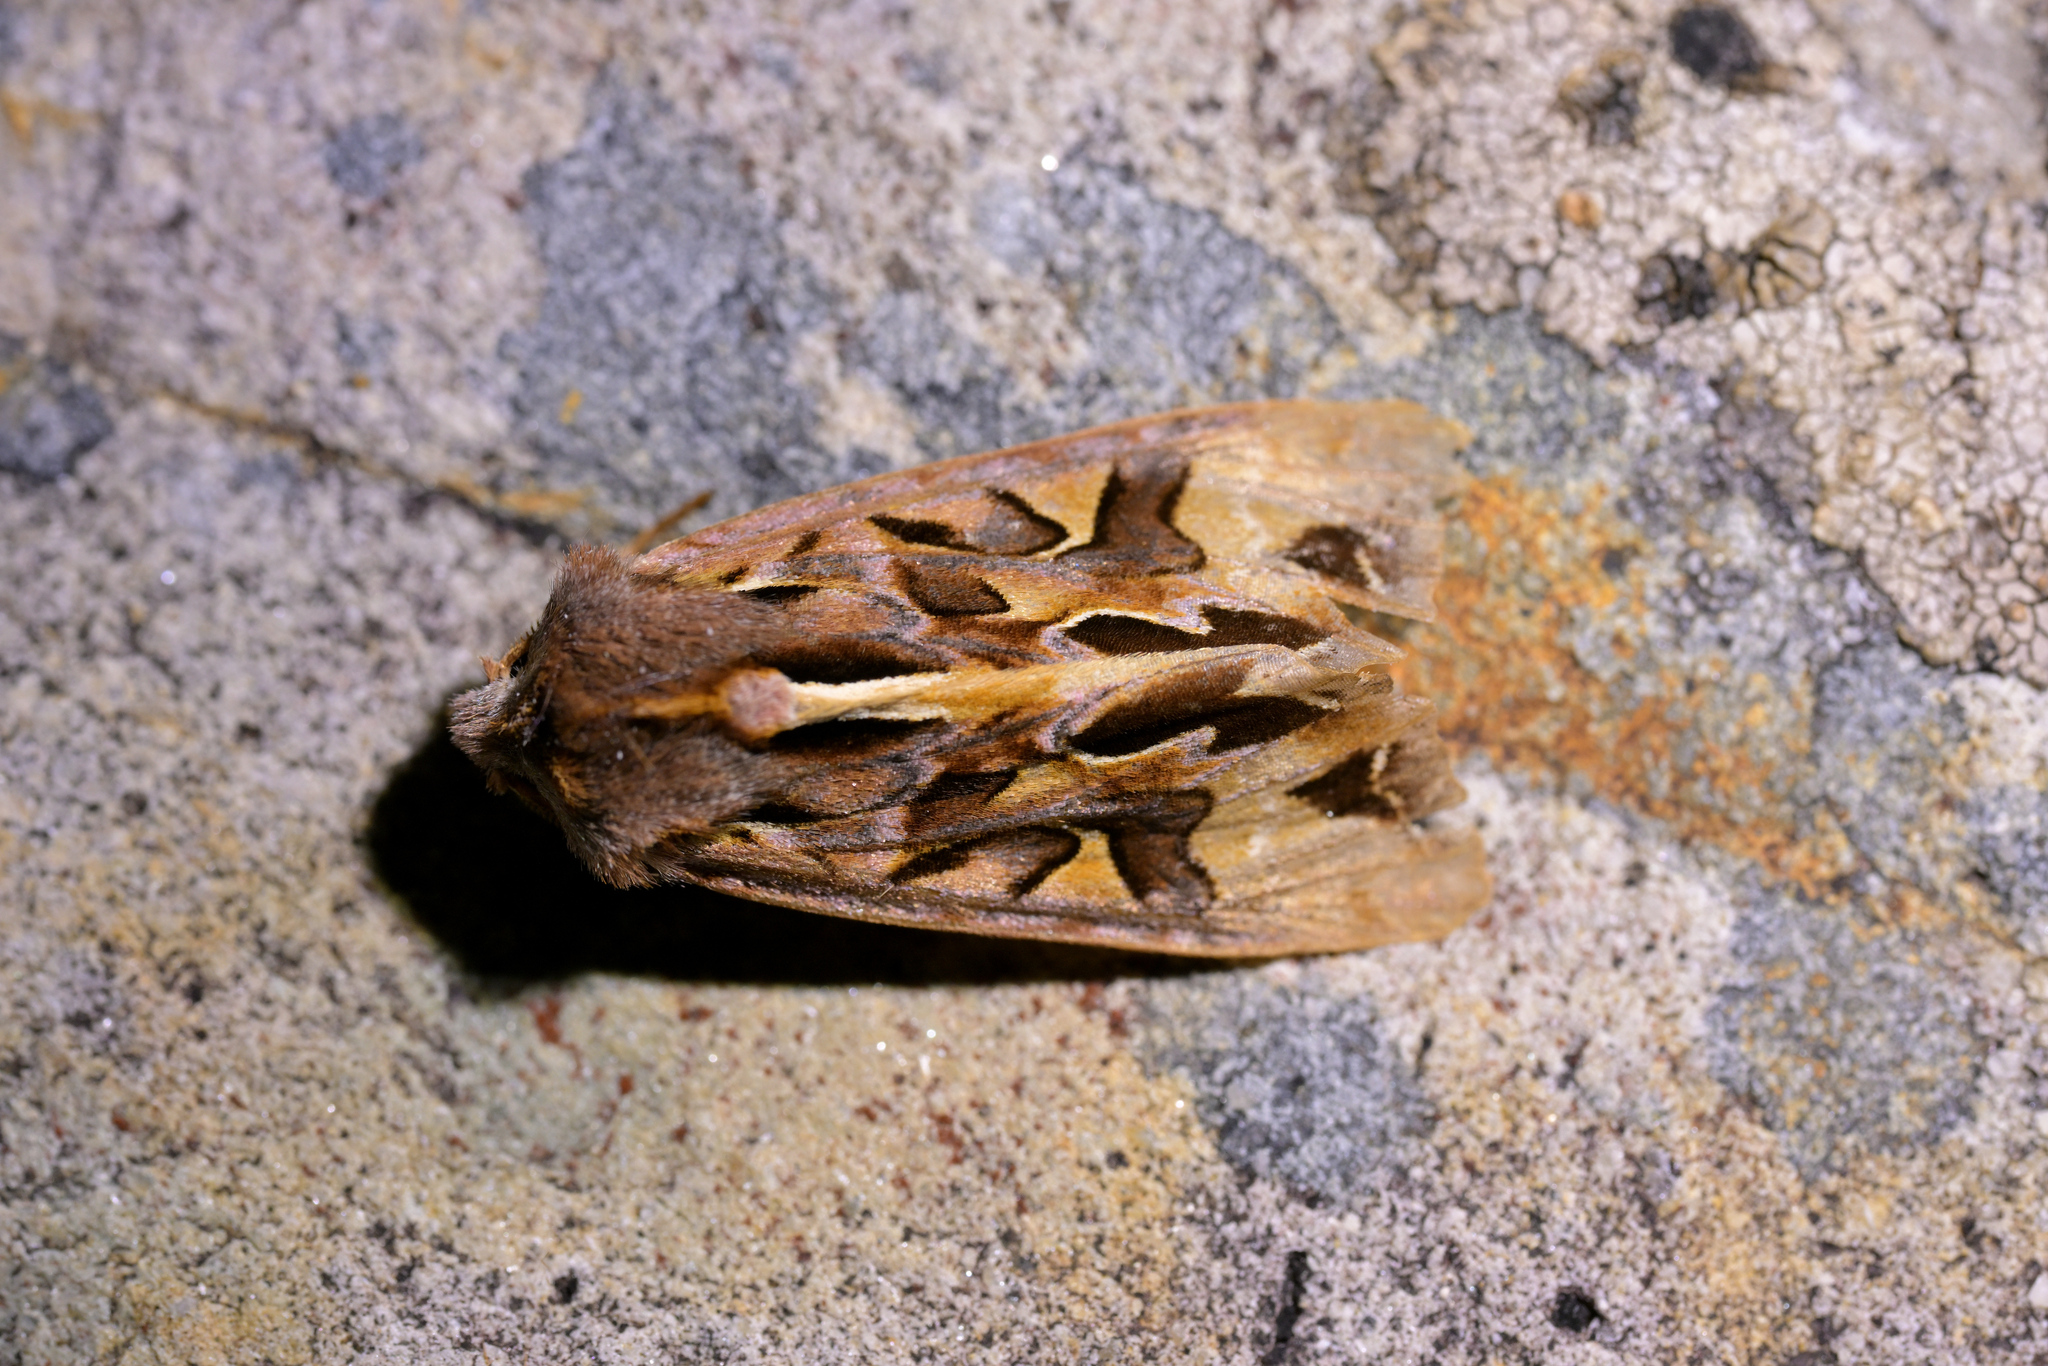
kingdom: Animalia
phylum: Arthropoda
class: Insecta
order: Lepidoptera
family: Noctuidae
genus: Ichneutica
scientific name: Ichneutica
